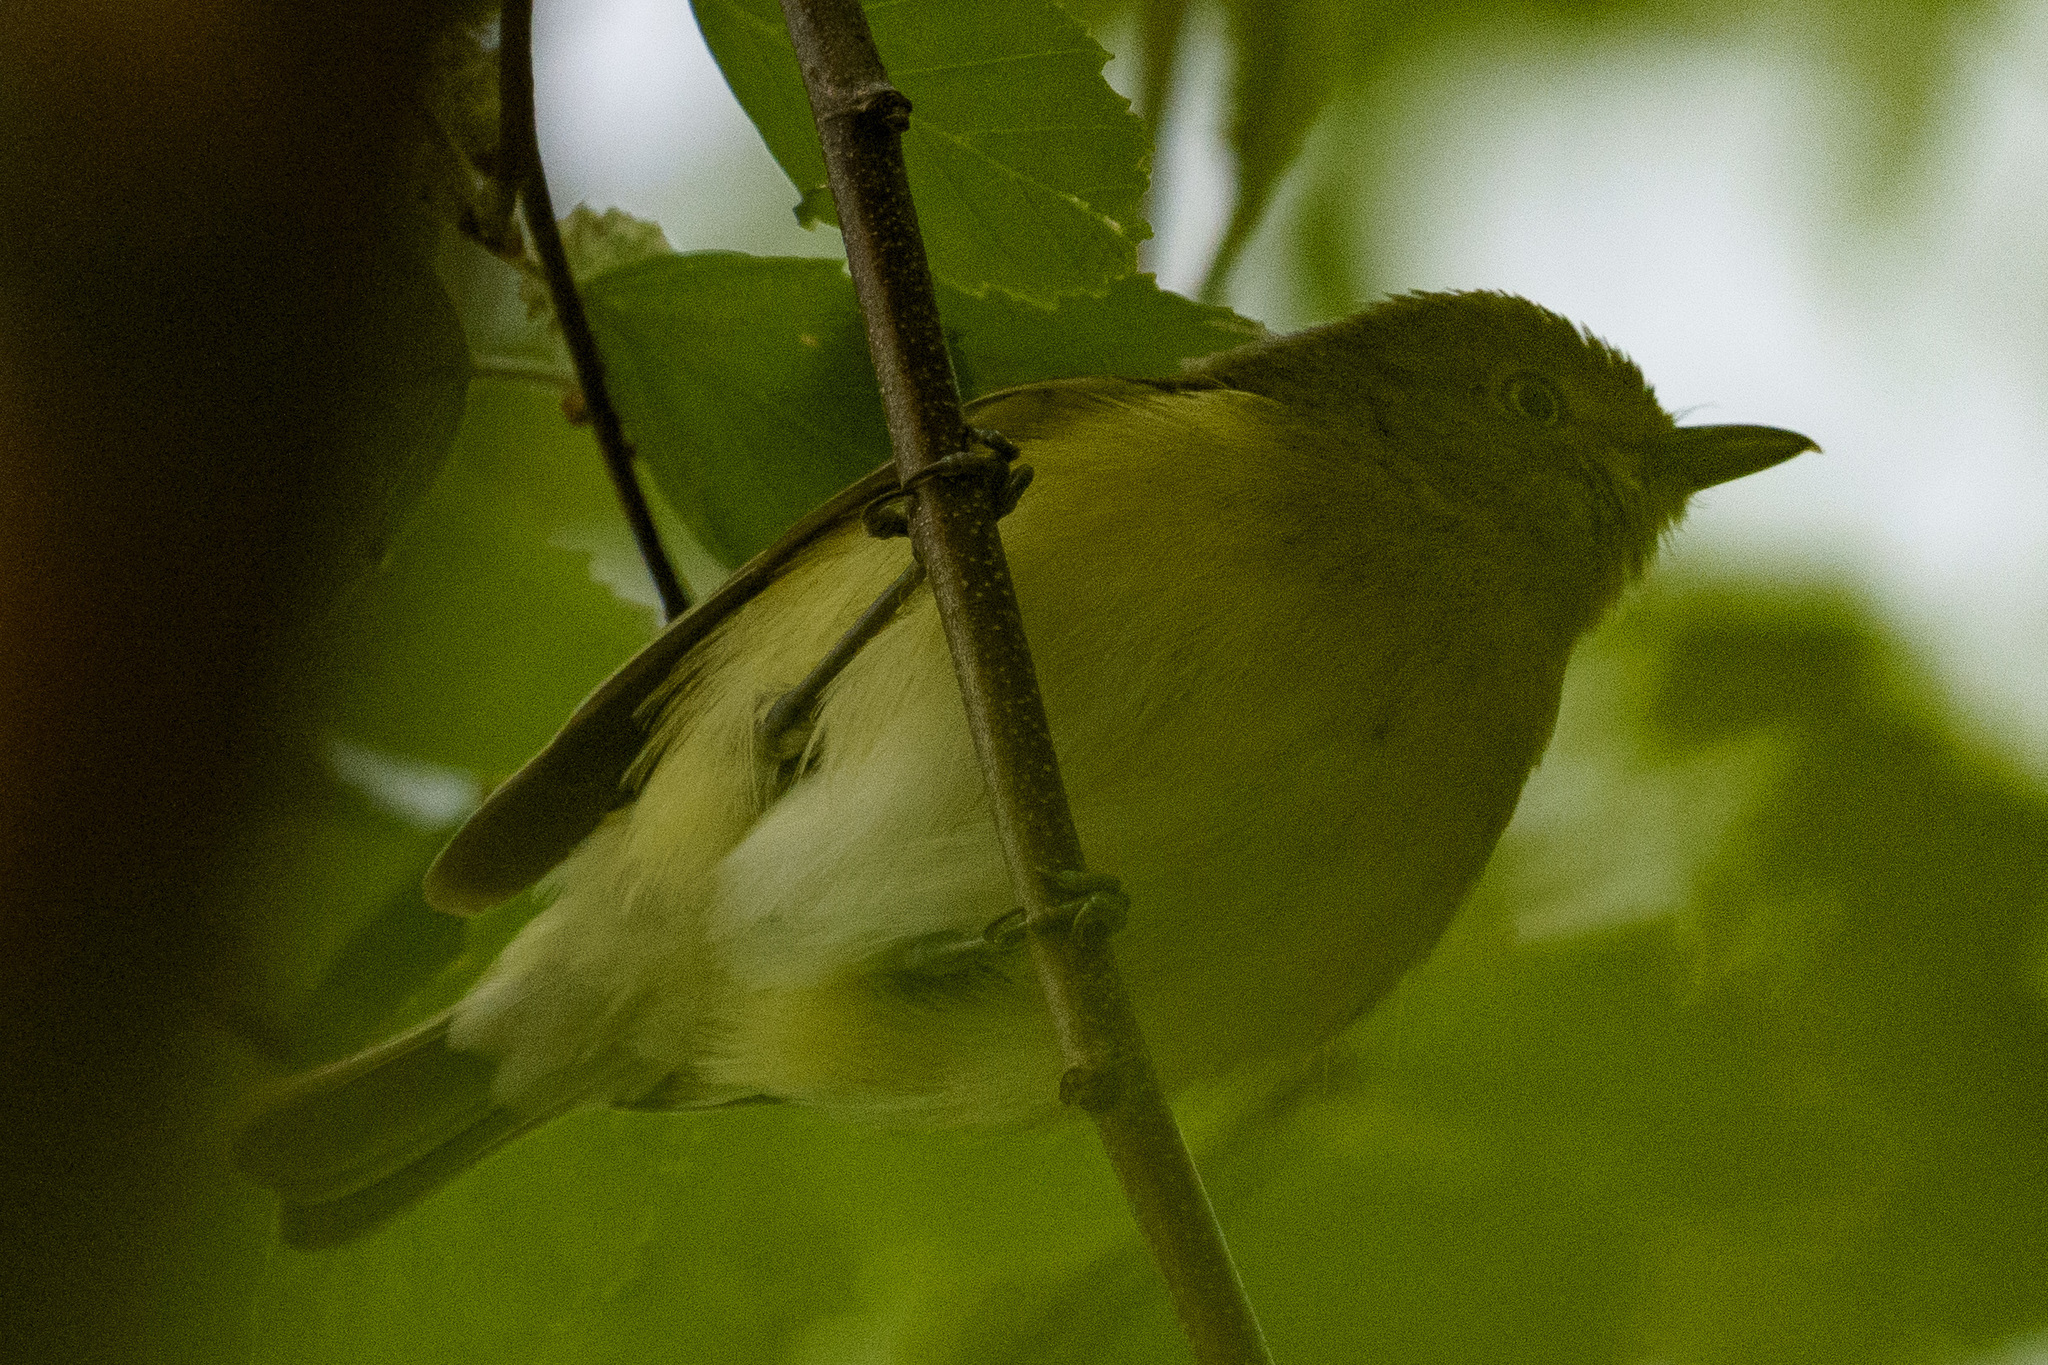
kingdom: Animalia
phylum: Chordata
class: Aves
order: Passeriformes
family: Vireonidae
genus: Vireo
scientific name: Vireo griseus
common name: White-eyed vireo
